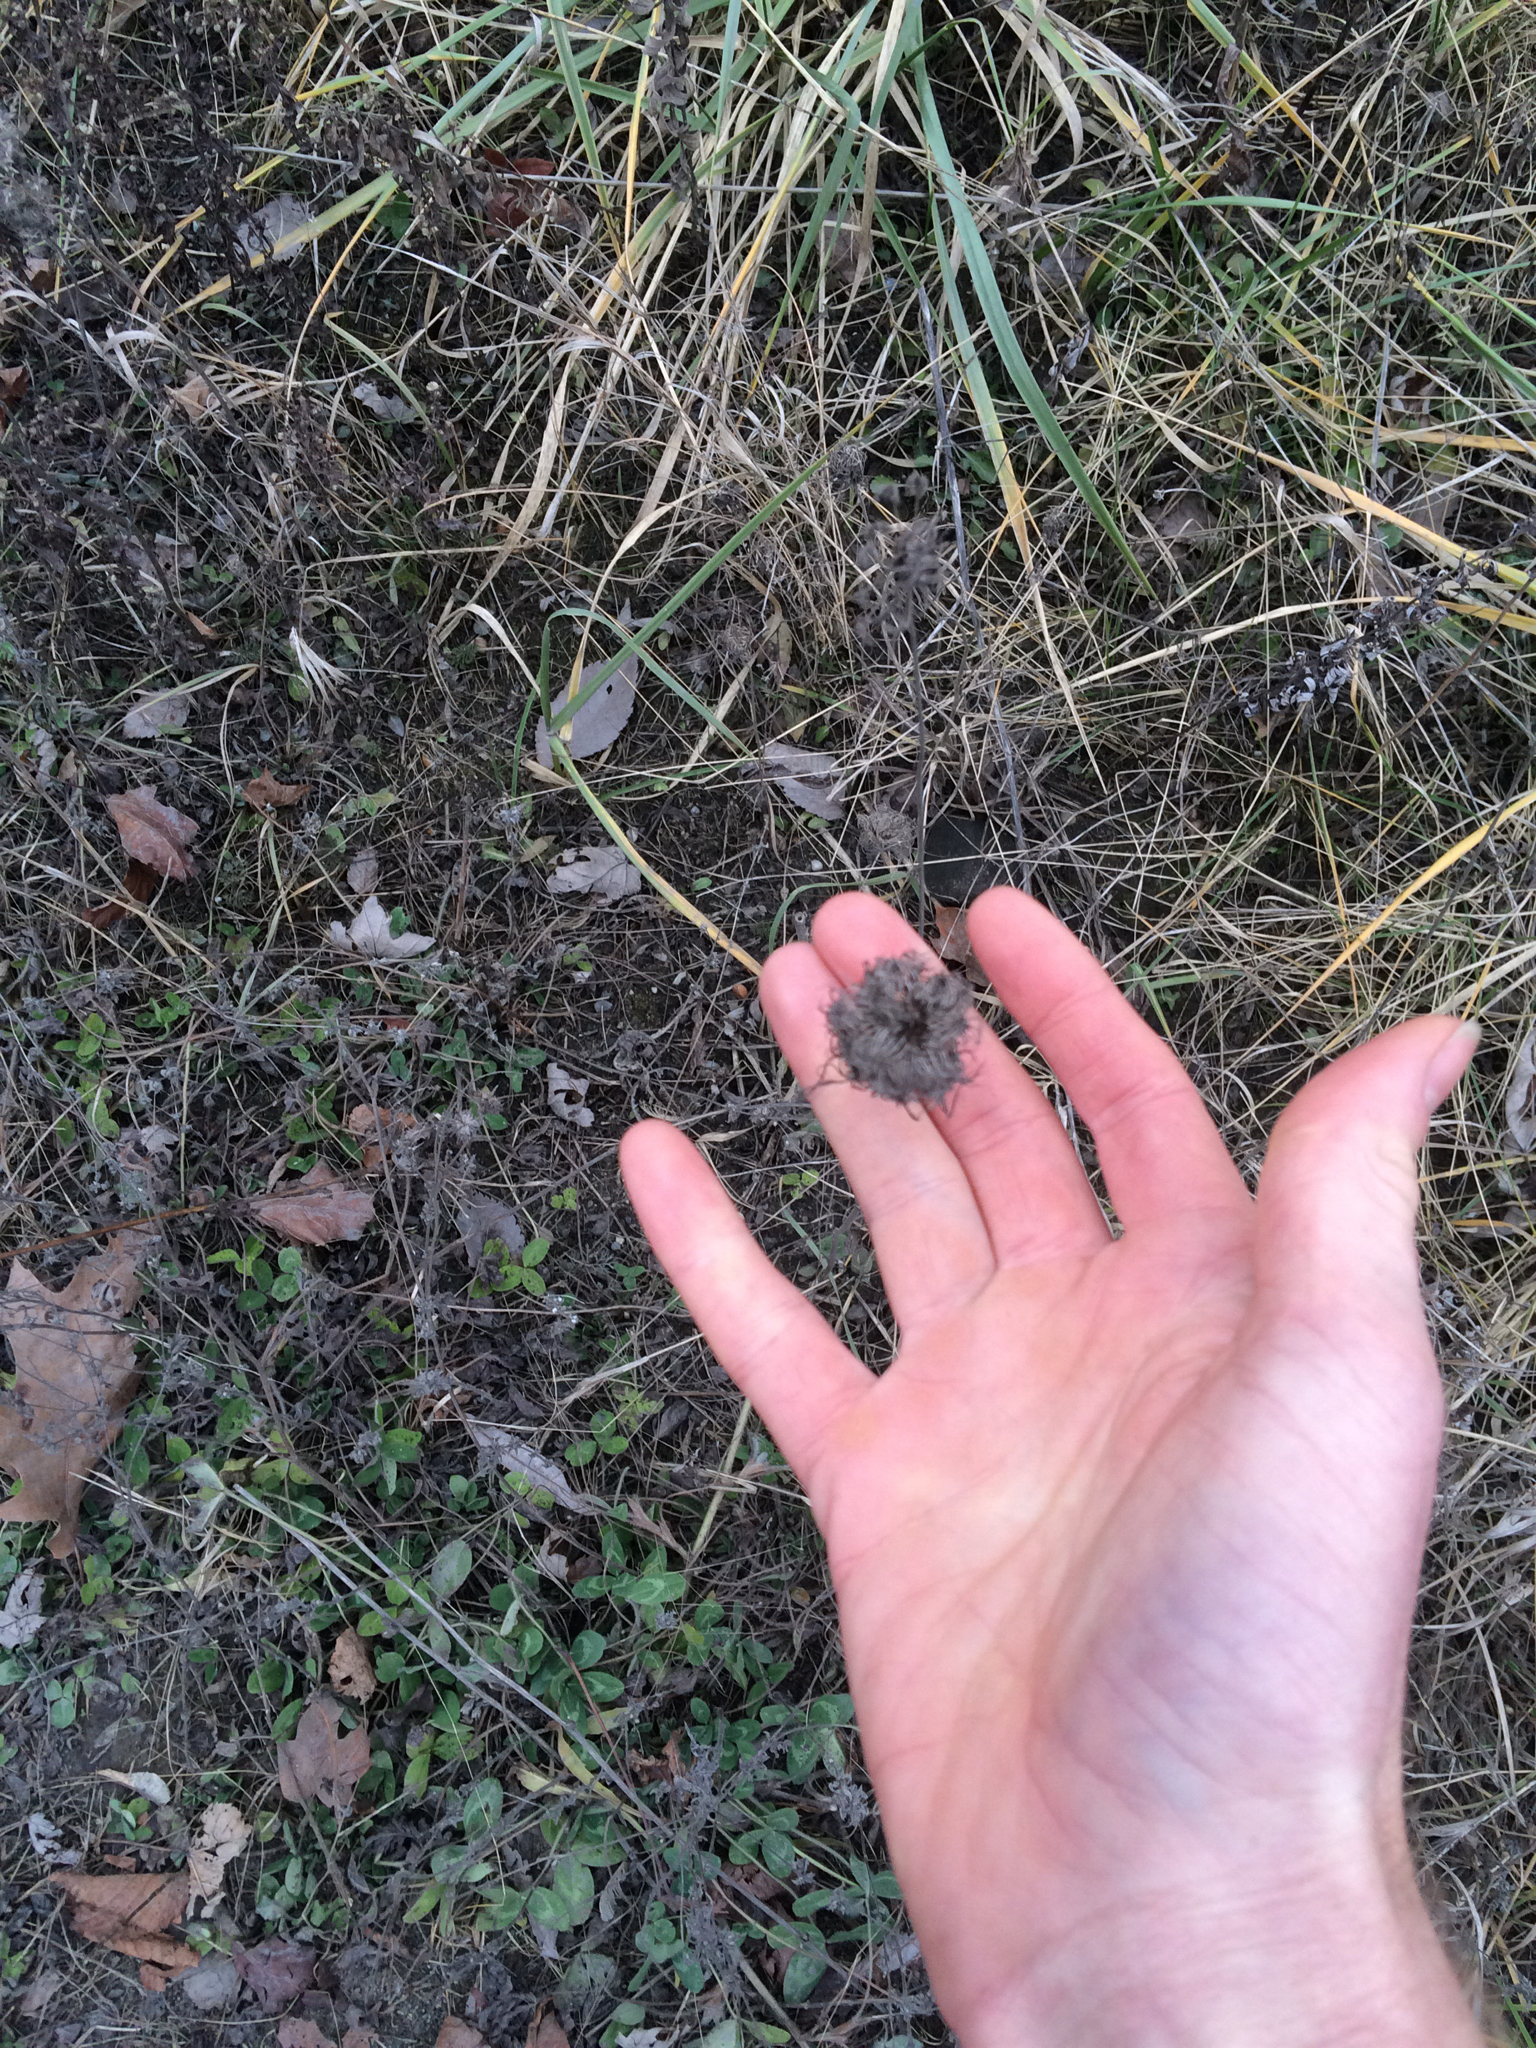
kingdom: Plantae
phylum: Tracheophyta
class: Magnoliopsida
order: Apiales
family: Apiaceae
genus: Daucus
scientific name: Daucus carota
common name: Wild carrot
